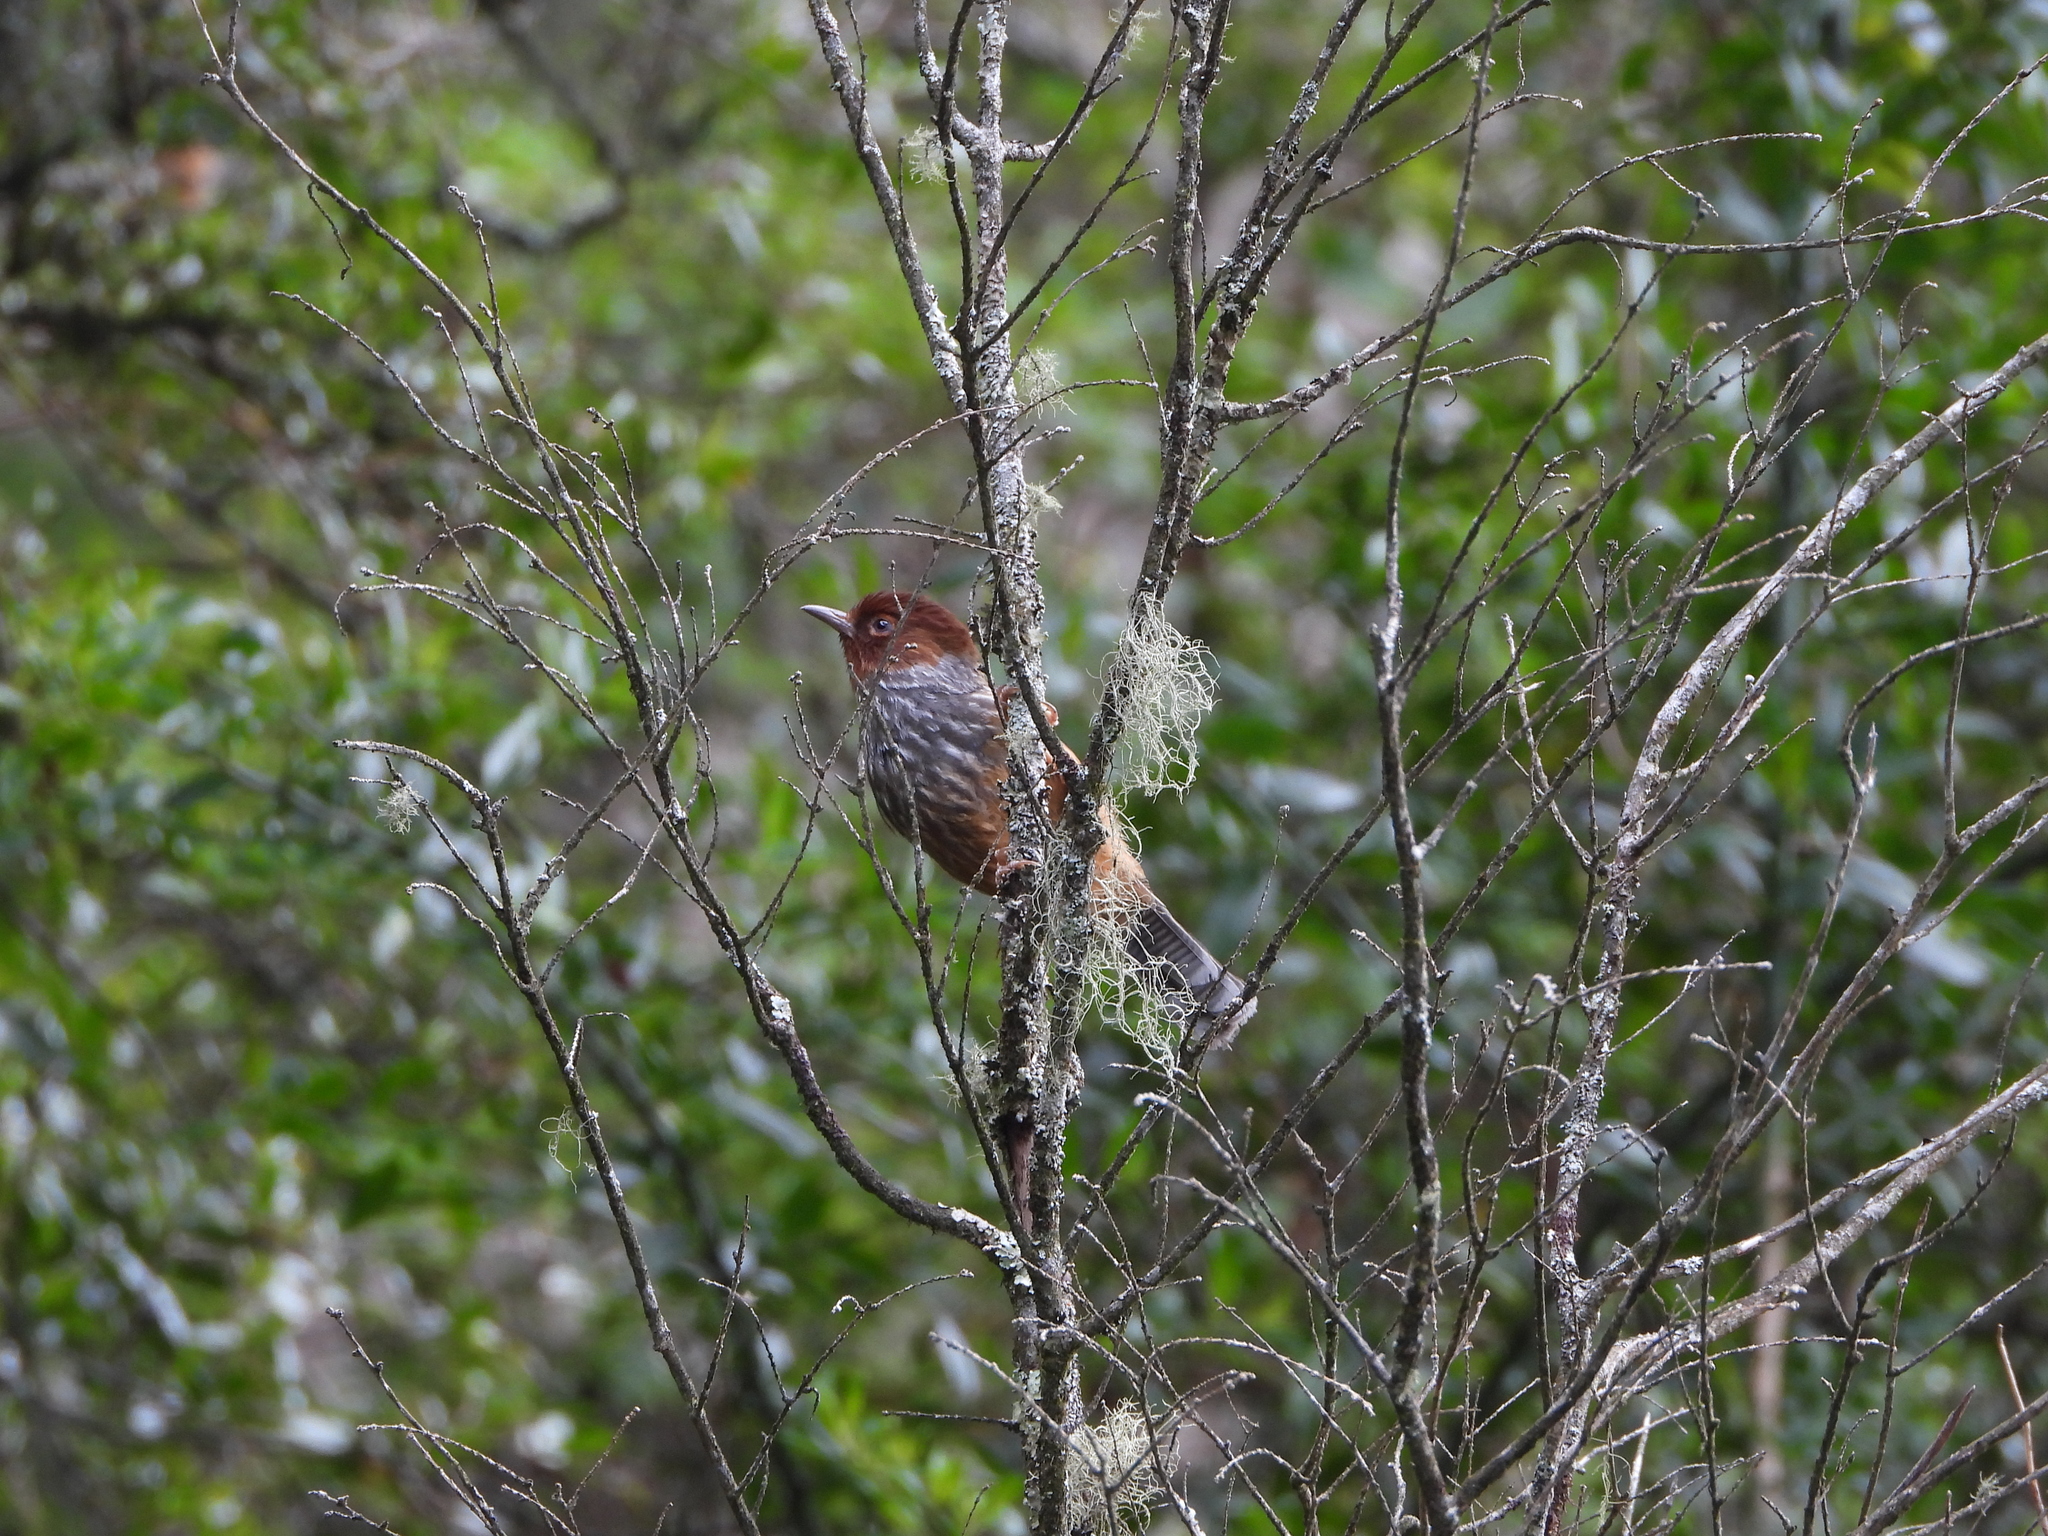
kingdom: Animalia
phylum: Chordata
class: Aves
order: Passeriformes
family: Leiothrichidae
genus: Actinodura
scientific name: Actinodura morrisoniana
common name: Taiwan barwing
